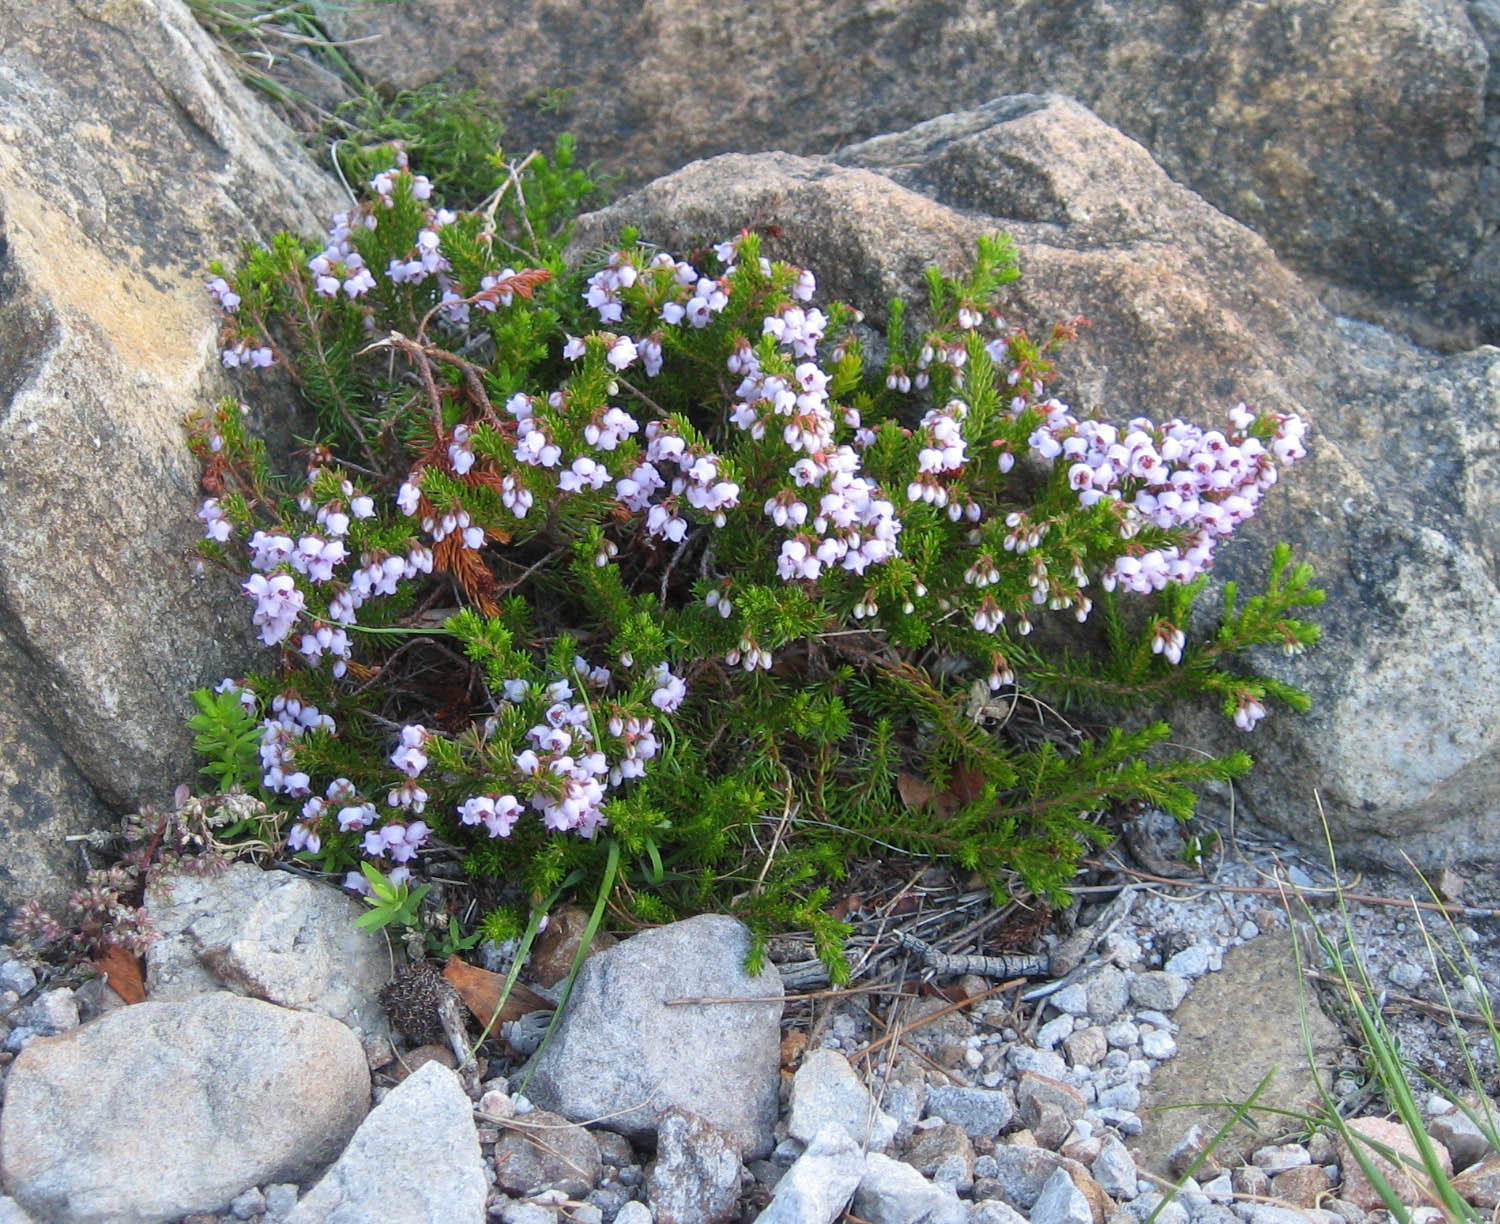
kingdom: Plantae
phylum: Tracheophyta
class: Magnoliopsida
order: Ericales
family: Ericaceae
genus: Erica
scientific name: Erica curvirostris
